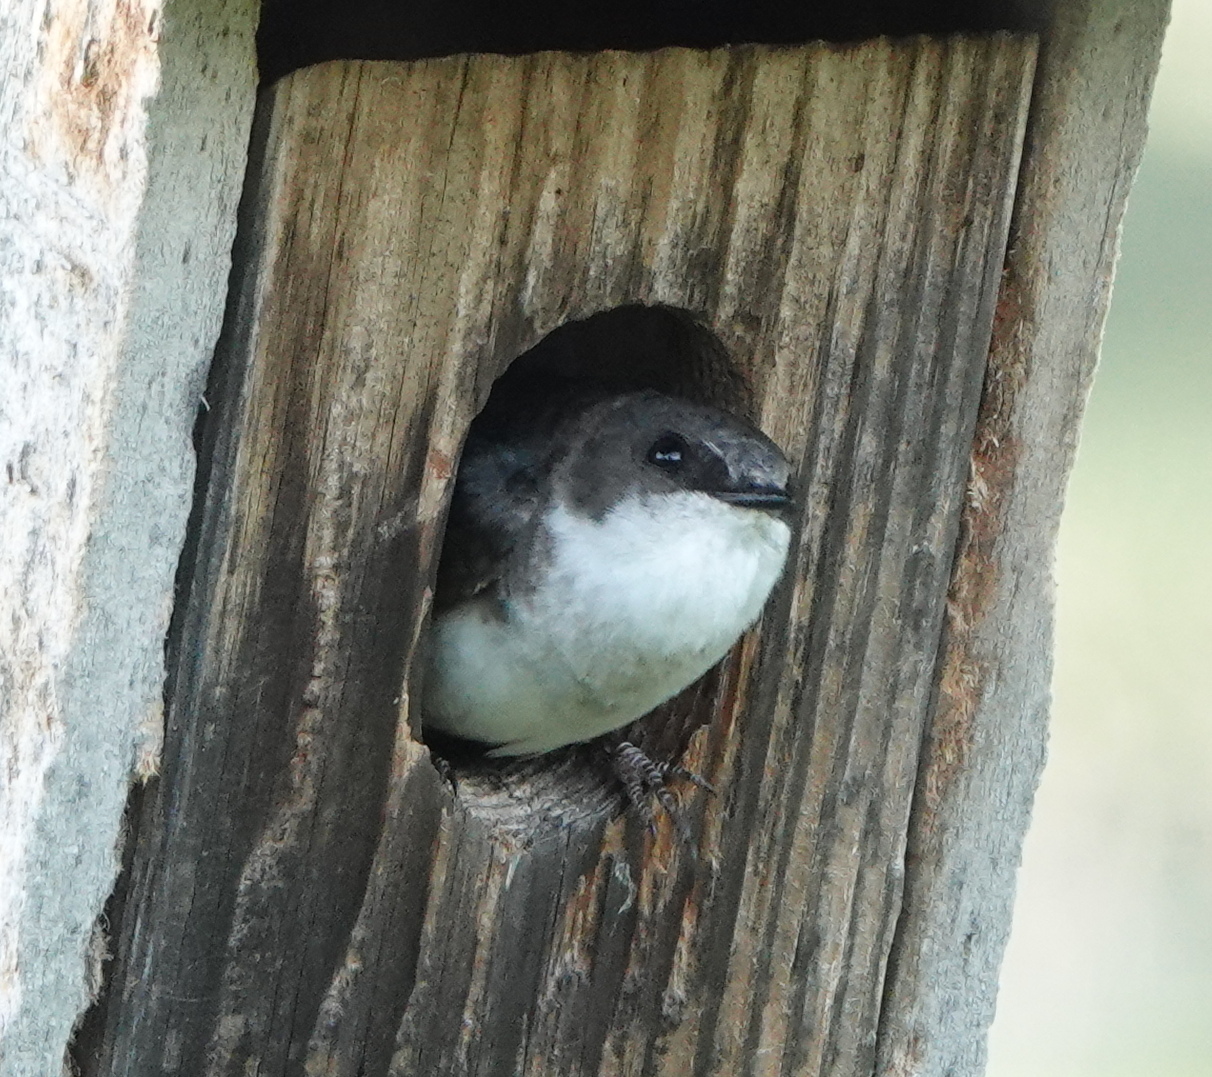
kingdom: Animalia
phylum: Chordata
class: Aves
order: Passeriformes
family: Hirundinidae
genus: Tachycineta
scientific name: Tachycineta bicolor
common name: Tree swallow
